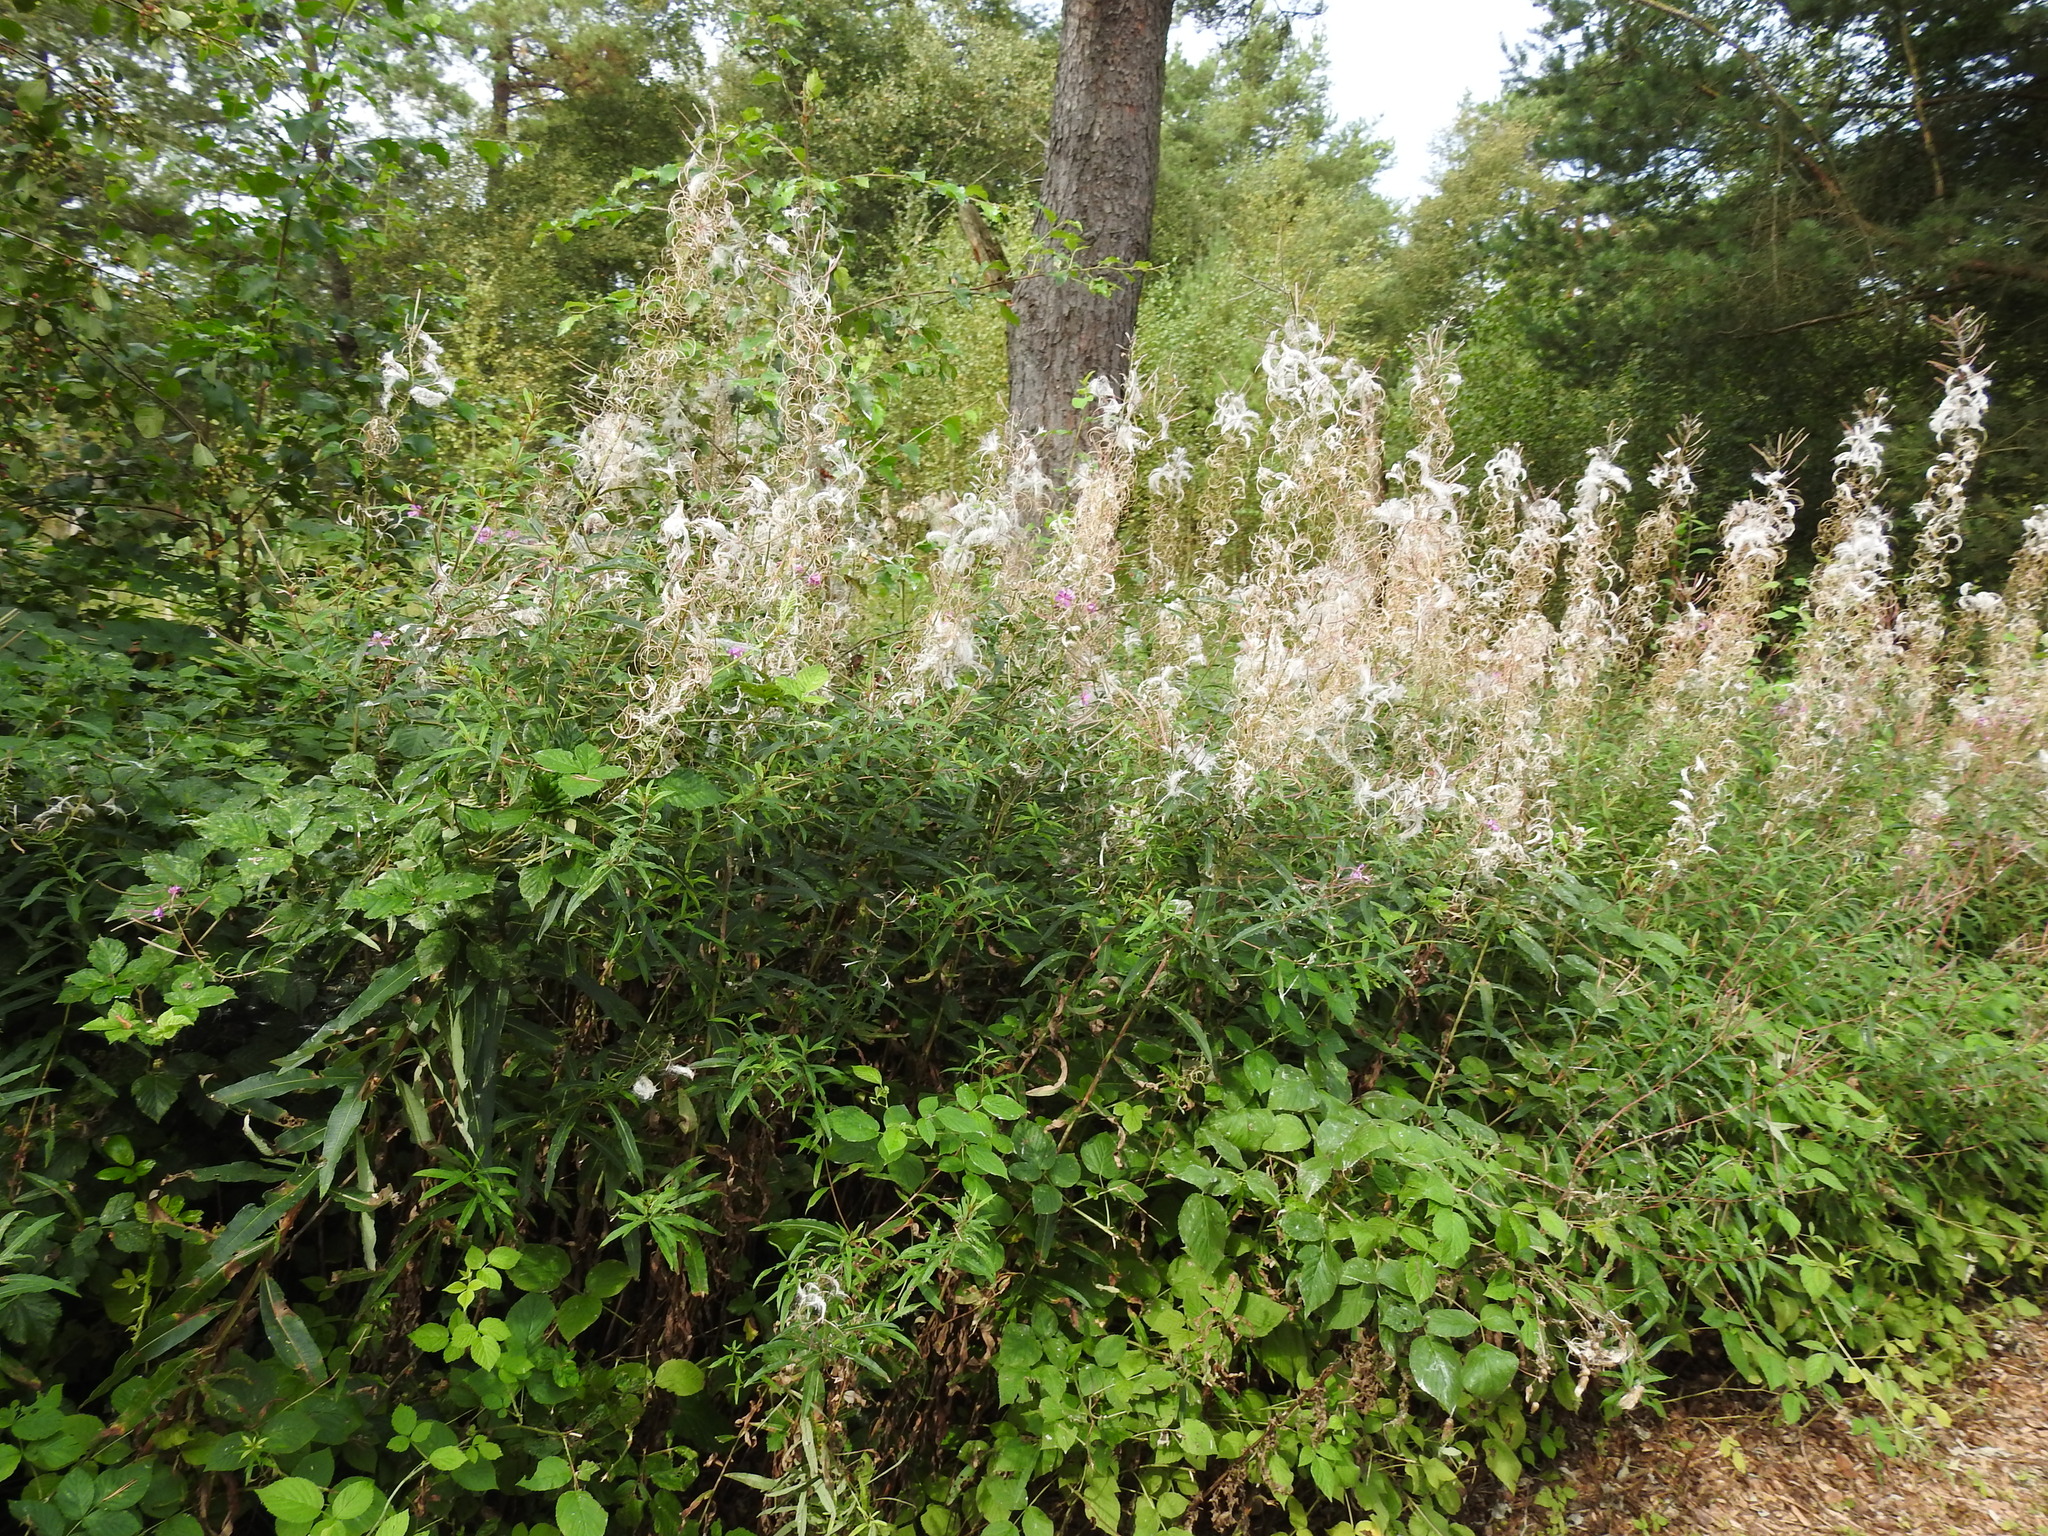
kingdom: Plantae
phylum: Tracheophyta
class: Magnoliopsida
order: Myrtales
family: Onagraceae
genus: Chamaenerion
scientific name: Chamaenerion angustifolium
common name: Fireweed
